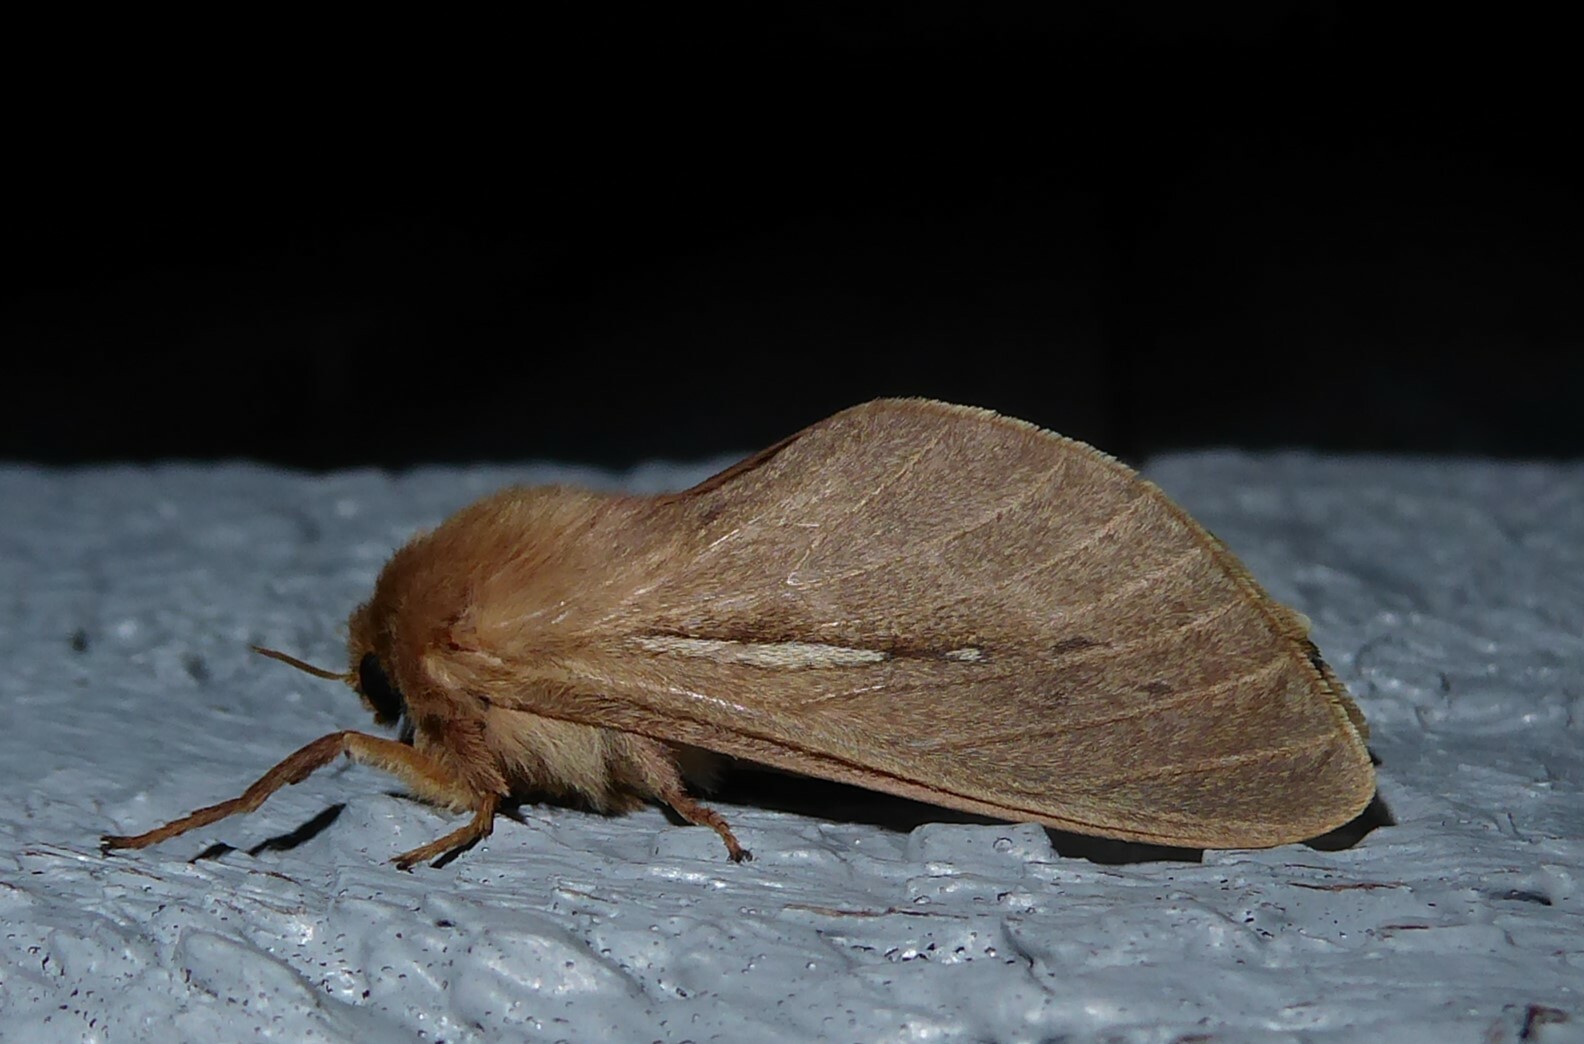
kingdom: Animalia
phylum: Arthropoda
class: Insecta
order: Lepidoptera
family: Hepialidae
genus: Wiseana
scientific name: Wiseana umbraculatus
